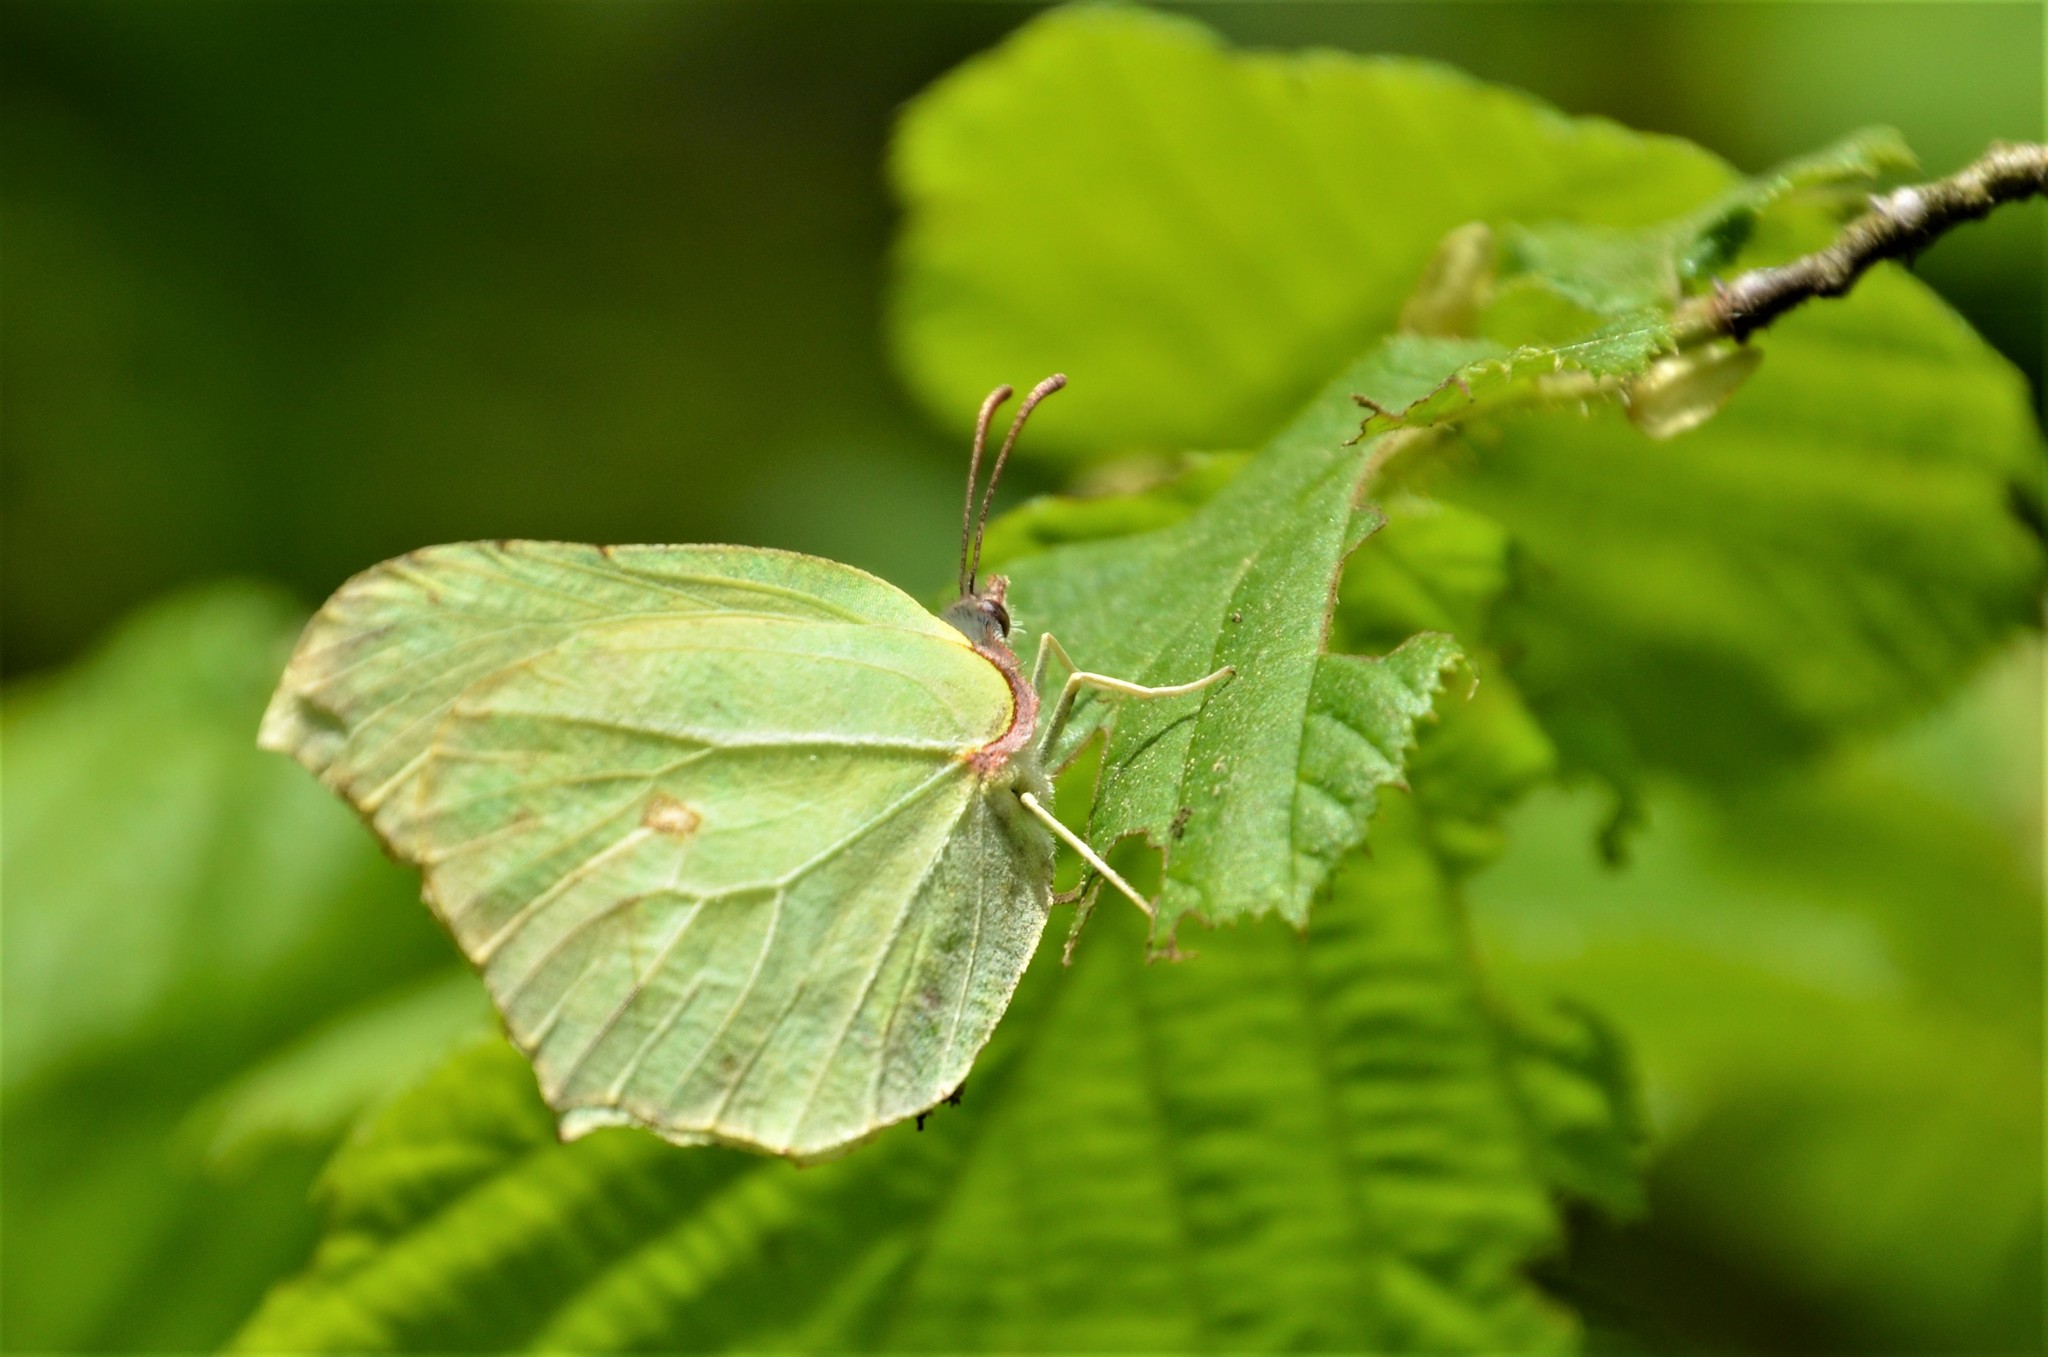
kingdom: Animalia
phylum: Arthropoda
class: Insecta
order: Lepidoptera
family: Pieridae
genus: Gonepteryx
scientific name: Gonepteryx rhamni
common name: Brimstone
